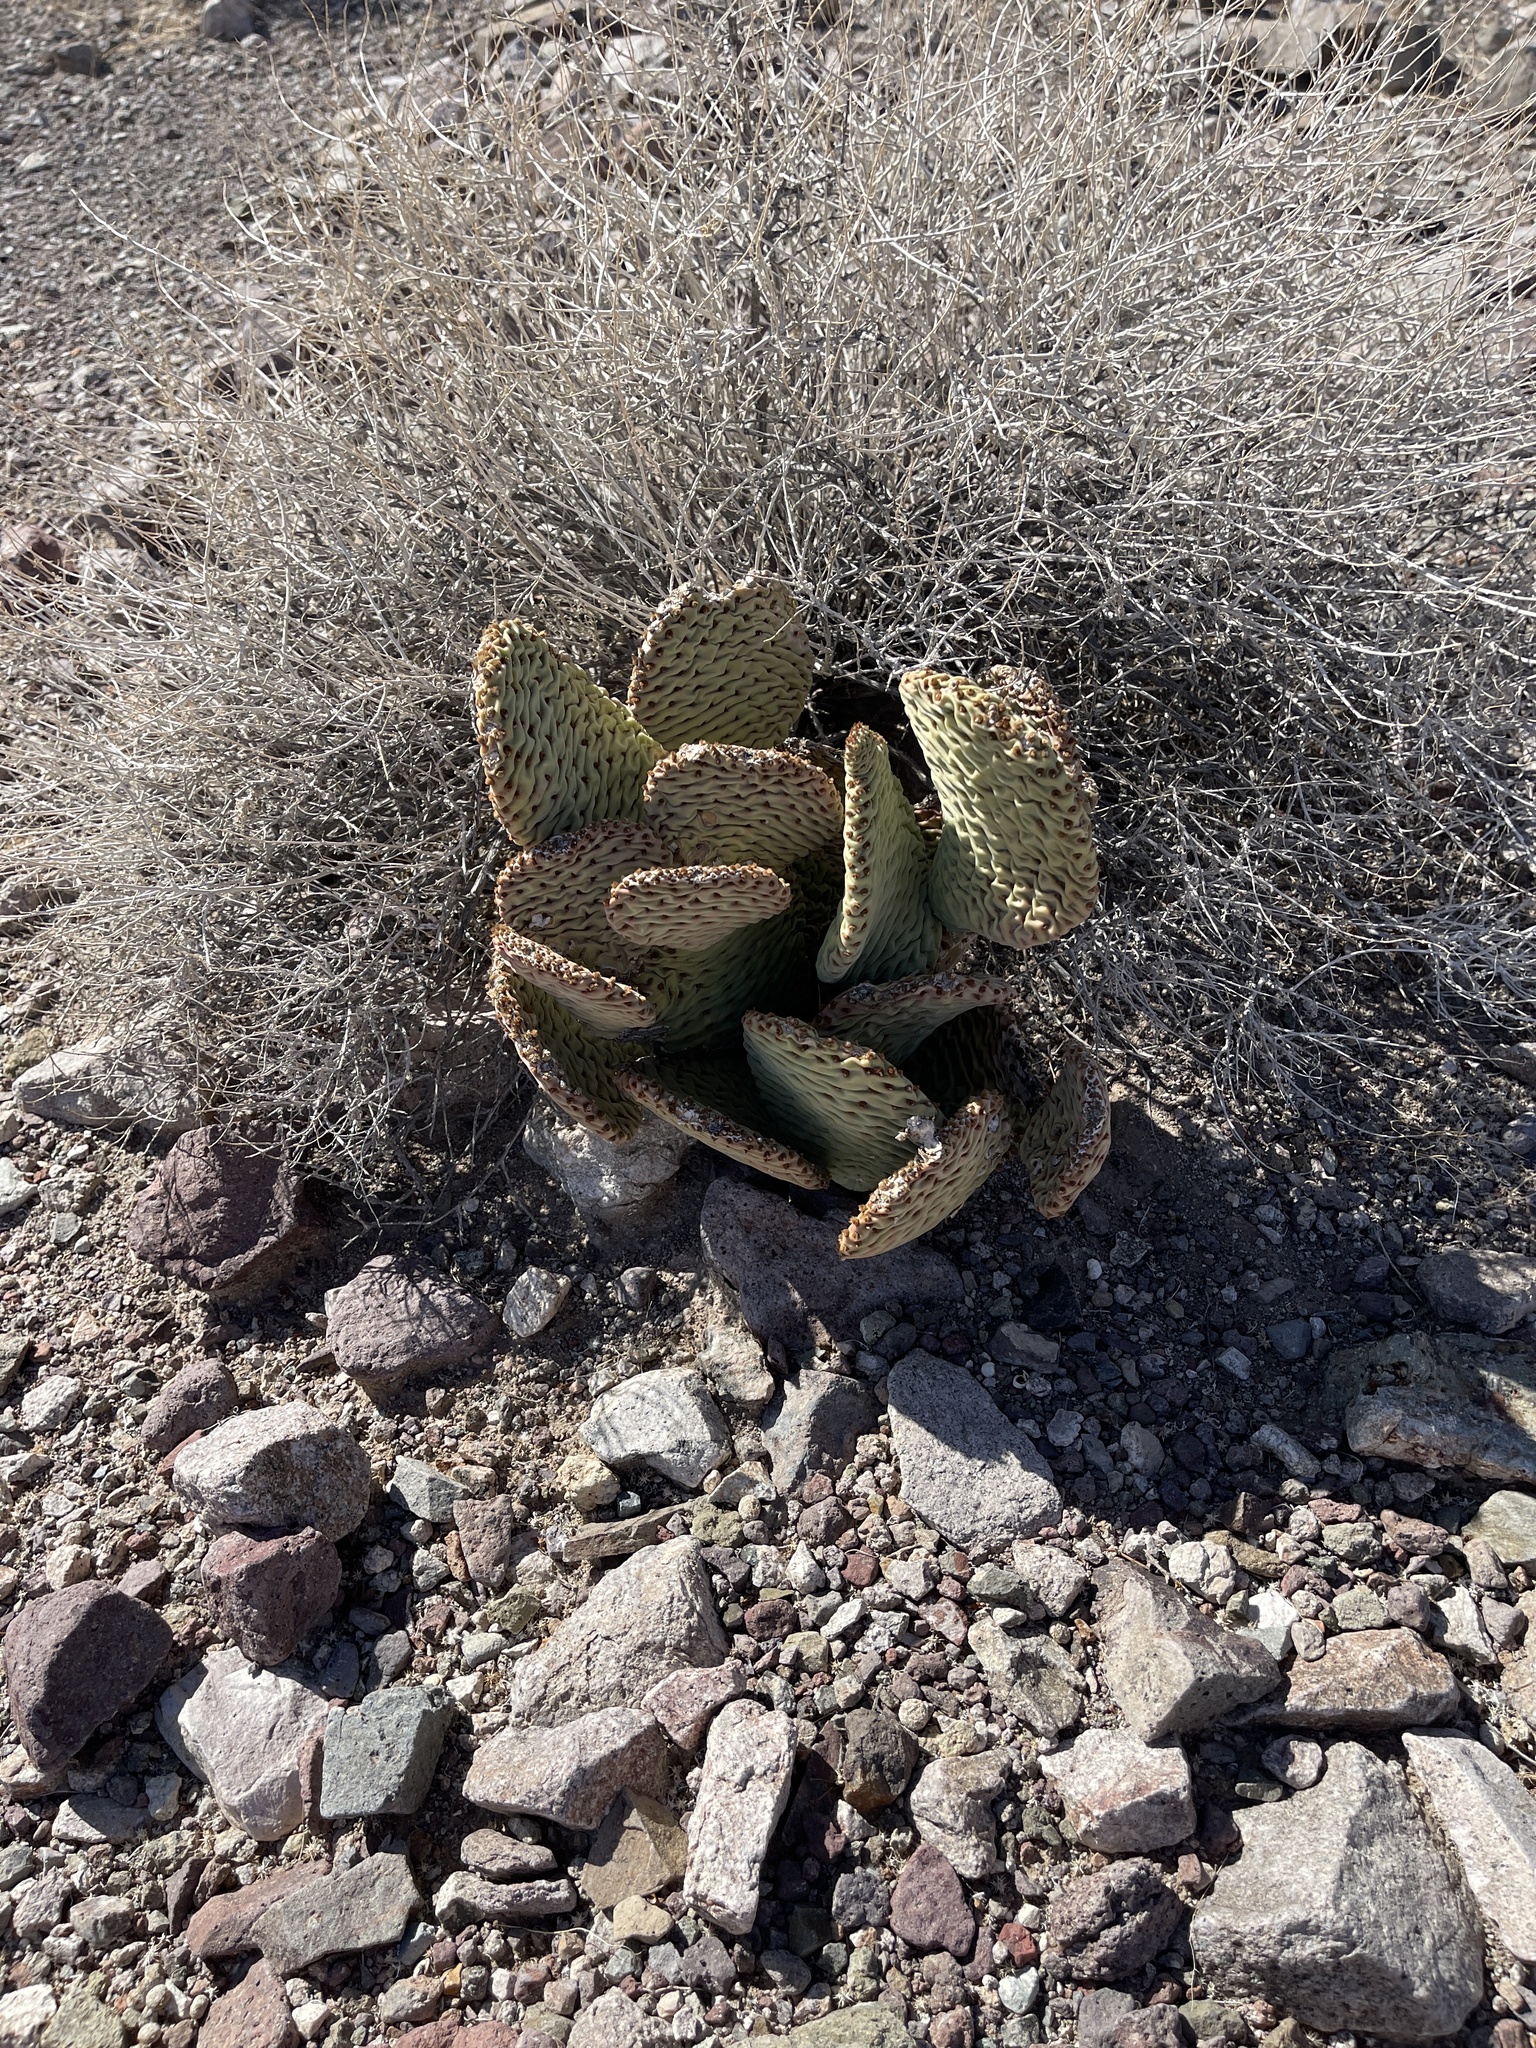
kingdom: Plantae
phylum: Tracheophyta
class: Magnoliopsida
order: Caryophyllales
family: Cactaceae
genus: Opuntia
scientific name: Opuntia basilaris
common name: Beavertail prickly-pear
